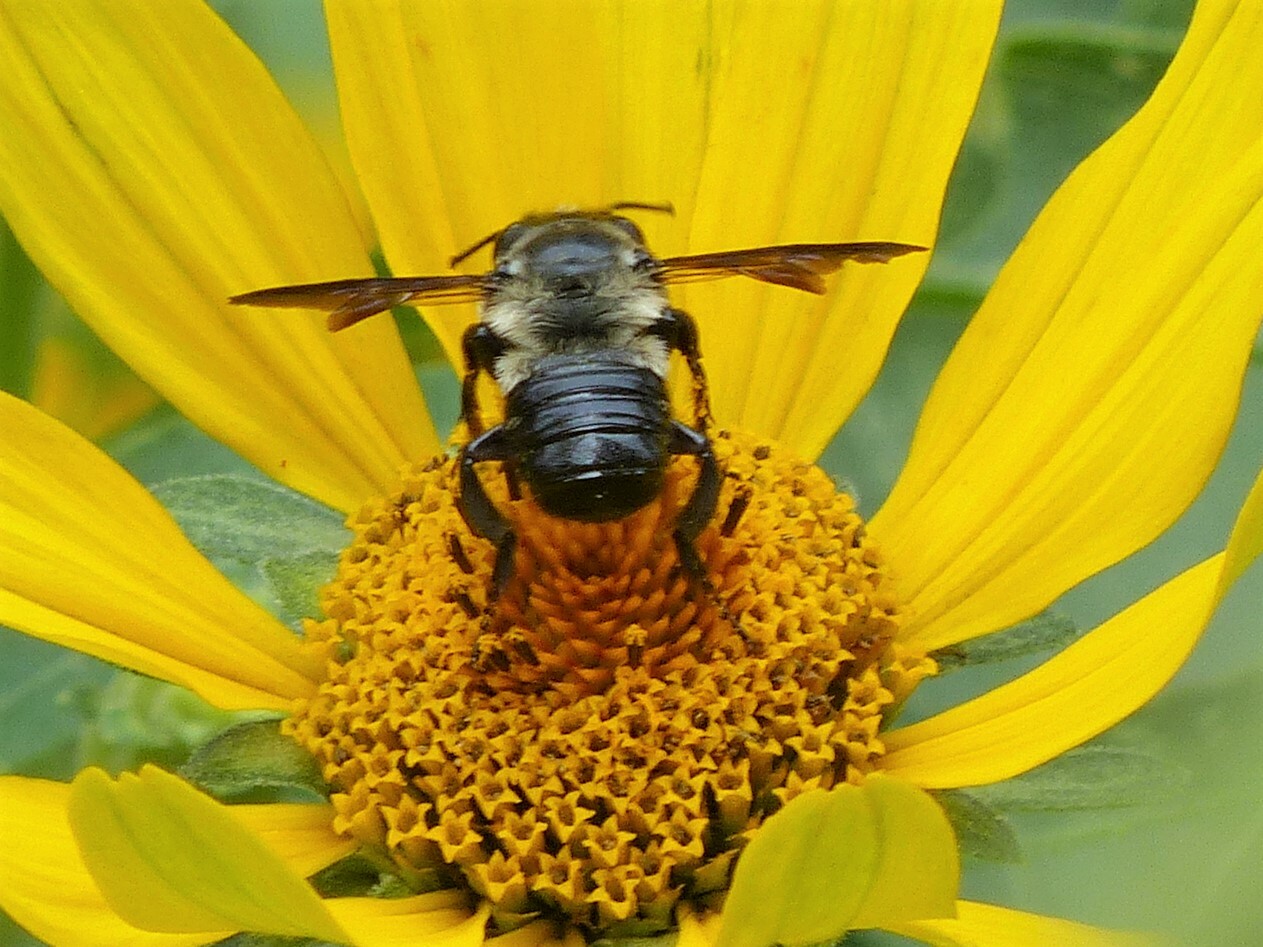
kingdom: Animalia
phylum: Arthropoda
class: Insecta
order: Hymenoptera
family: Megachilidae
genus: Megachile
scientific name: Megachile xylocopoides
